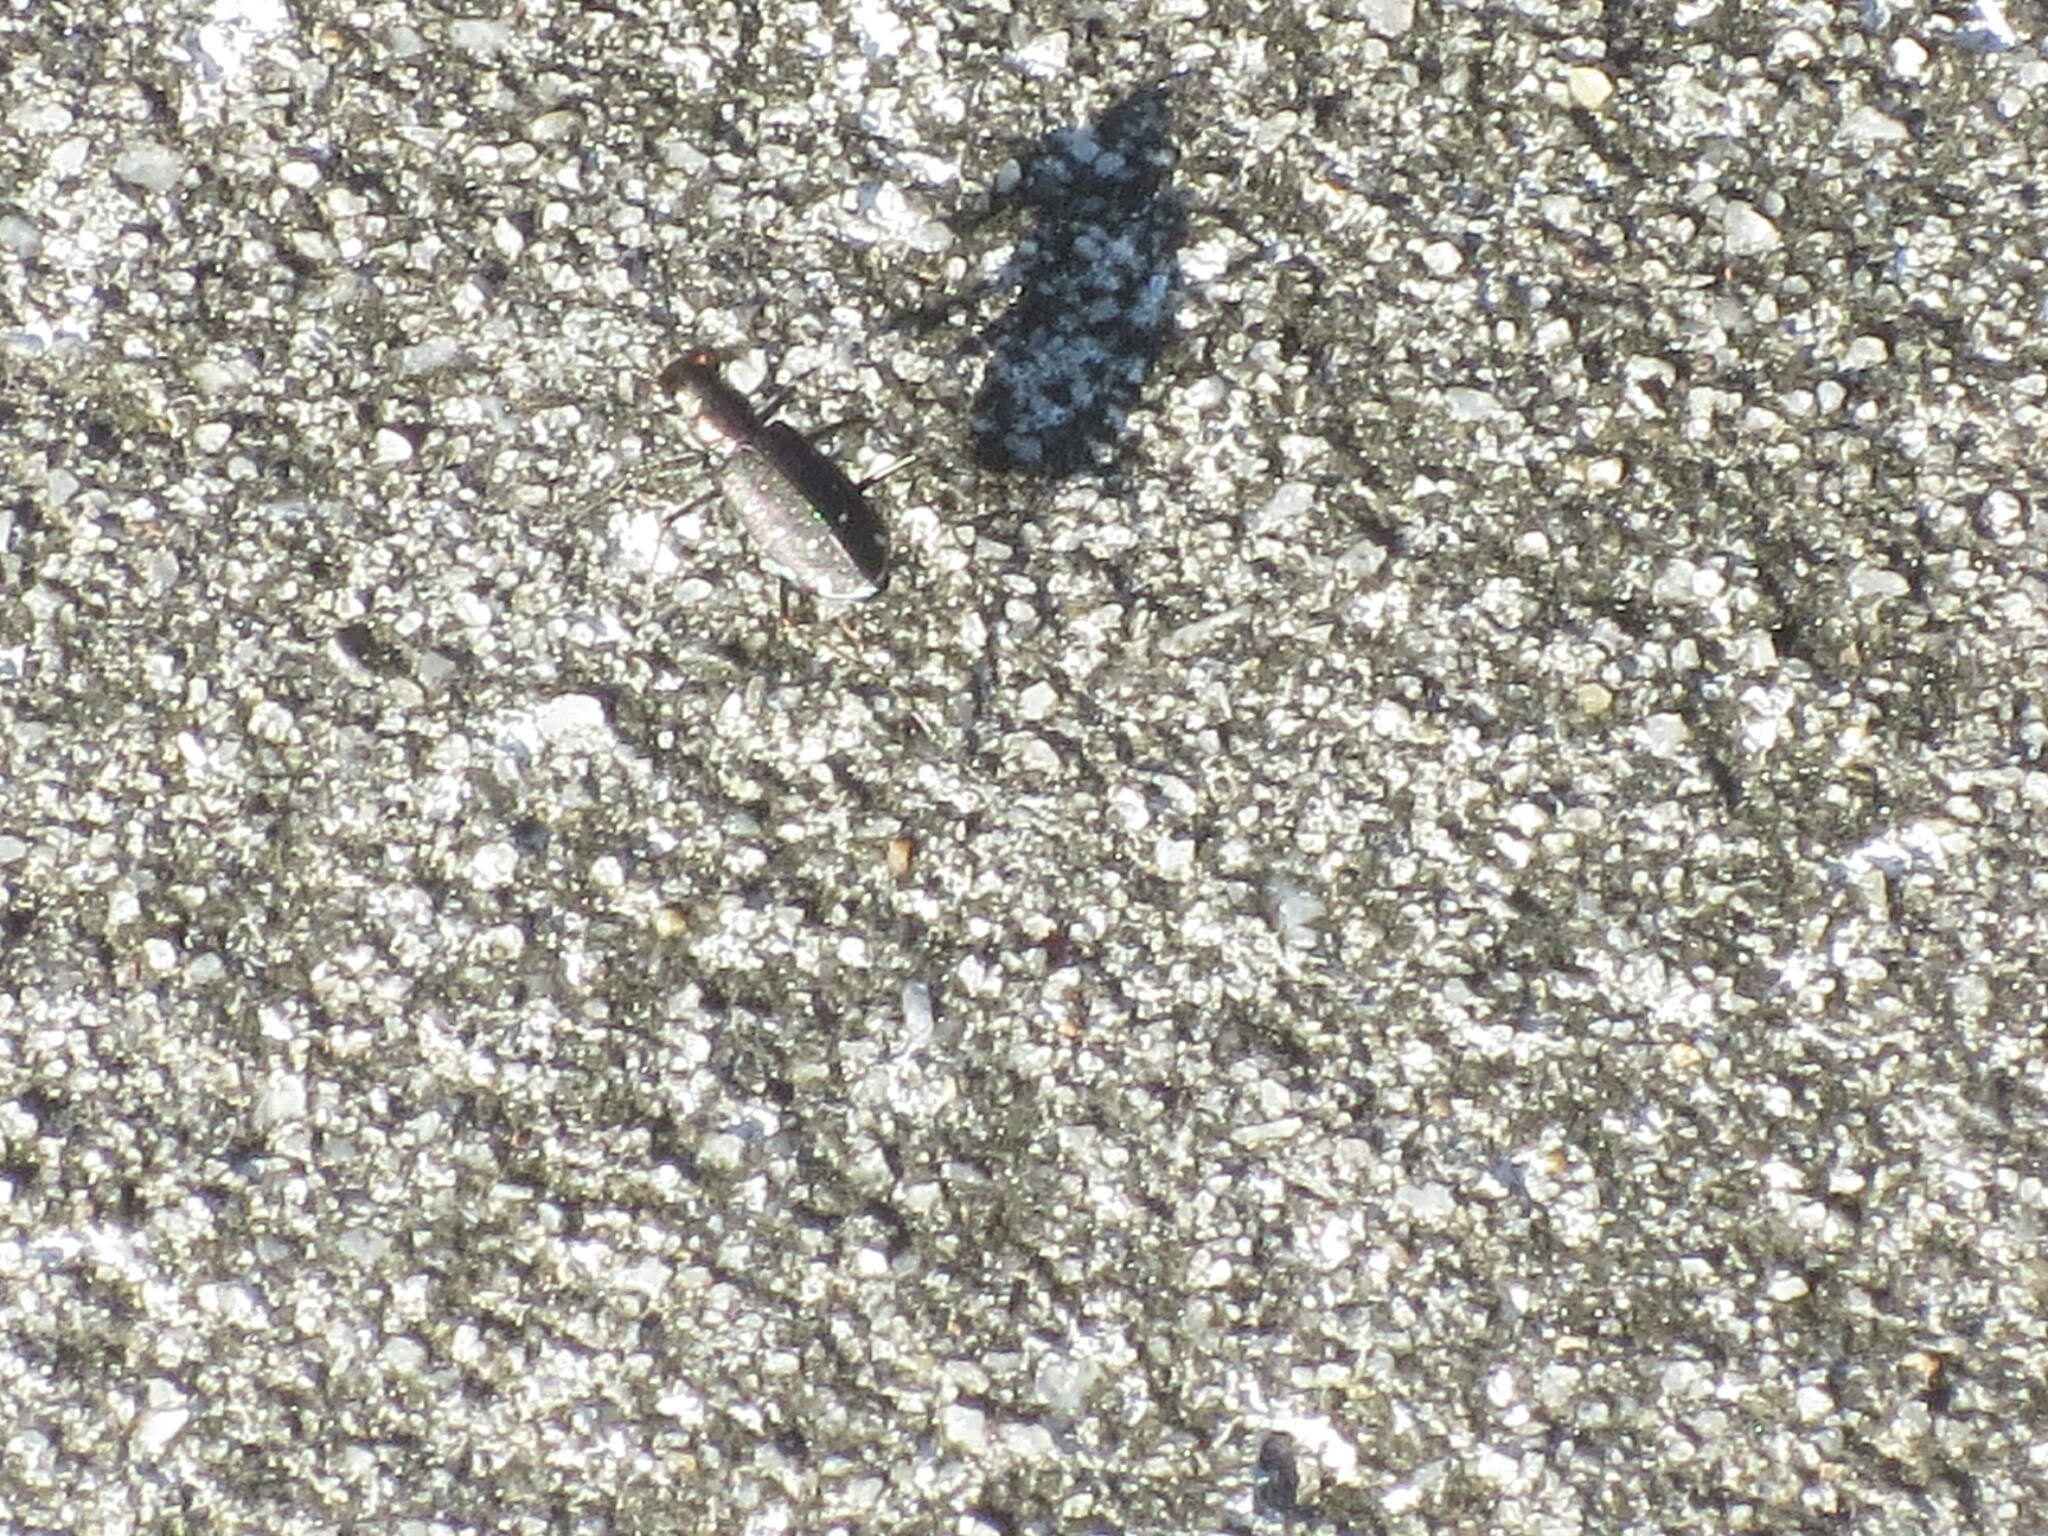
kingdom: Animalia
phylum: Arthropoda
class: Insecta
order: Coleoptera
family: Carabidae
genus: Cicindela
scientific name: Cicindela punctulata
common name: Punctured tiger beetle
